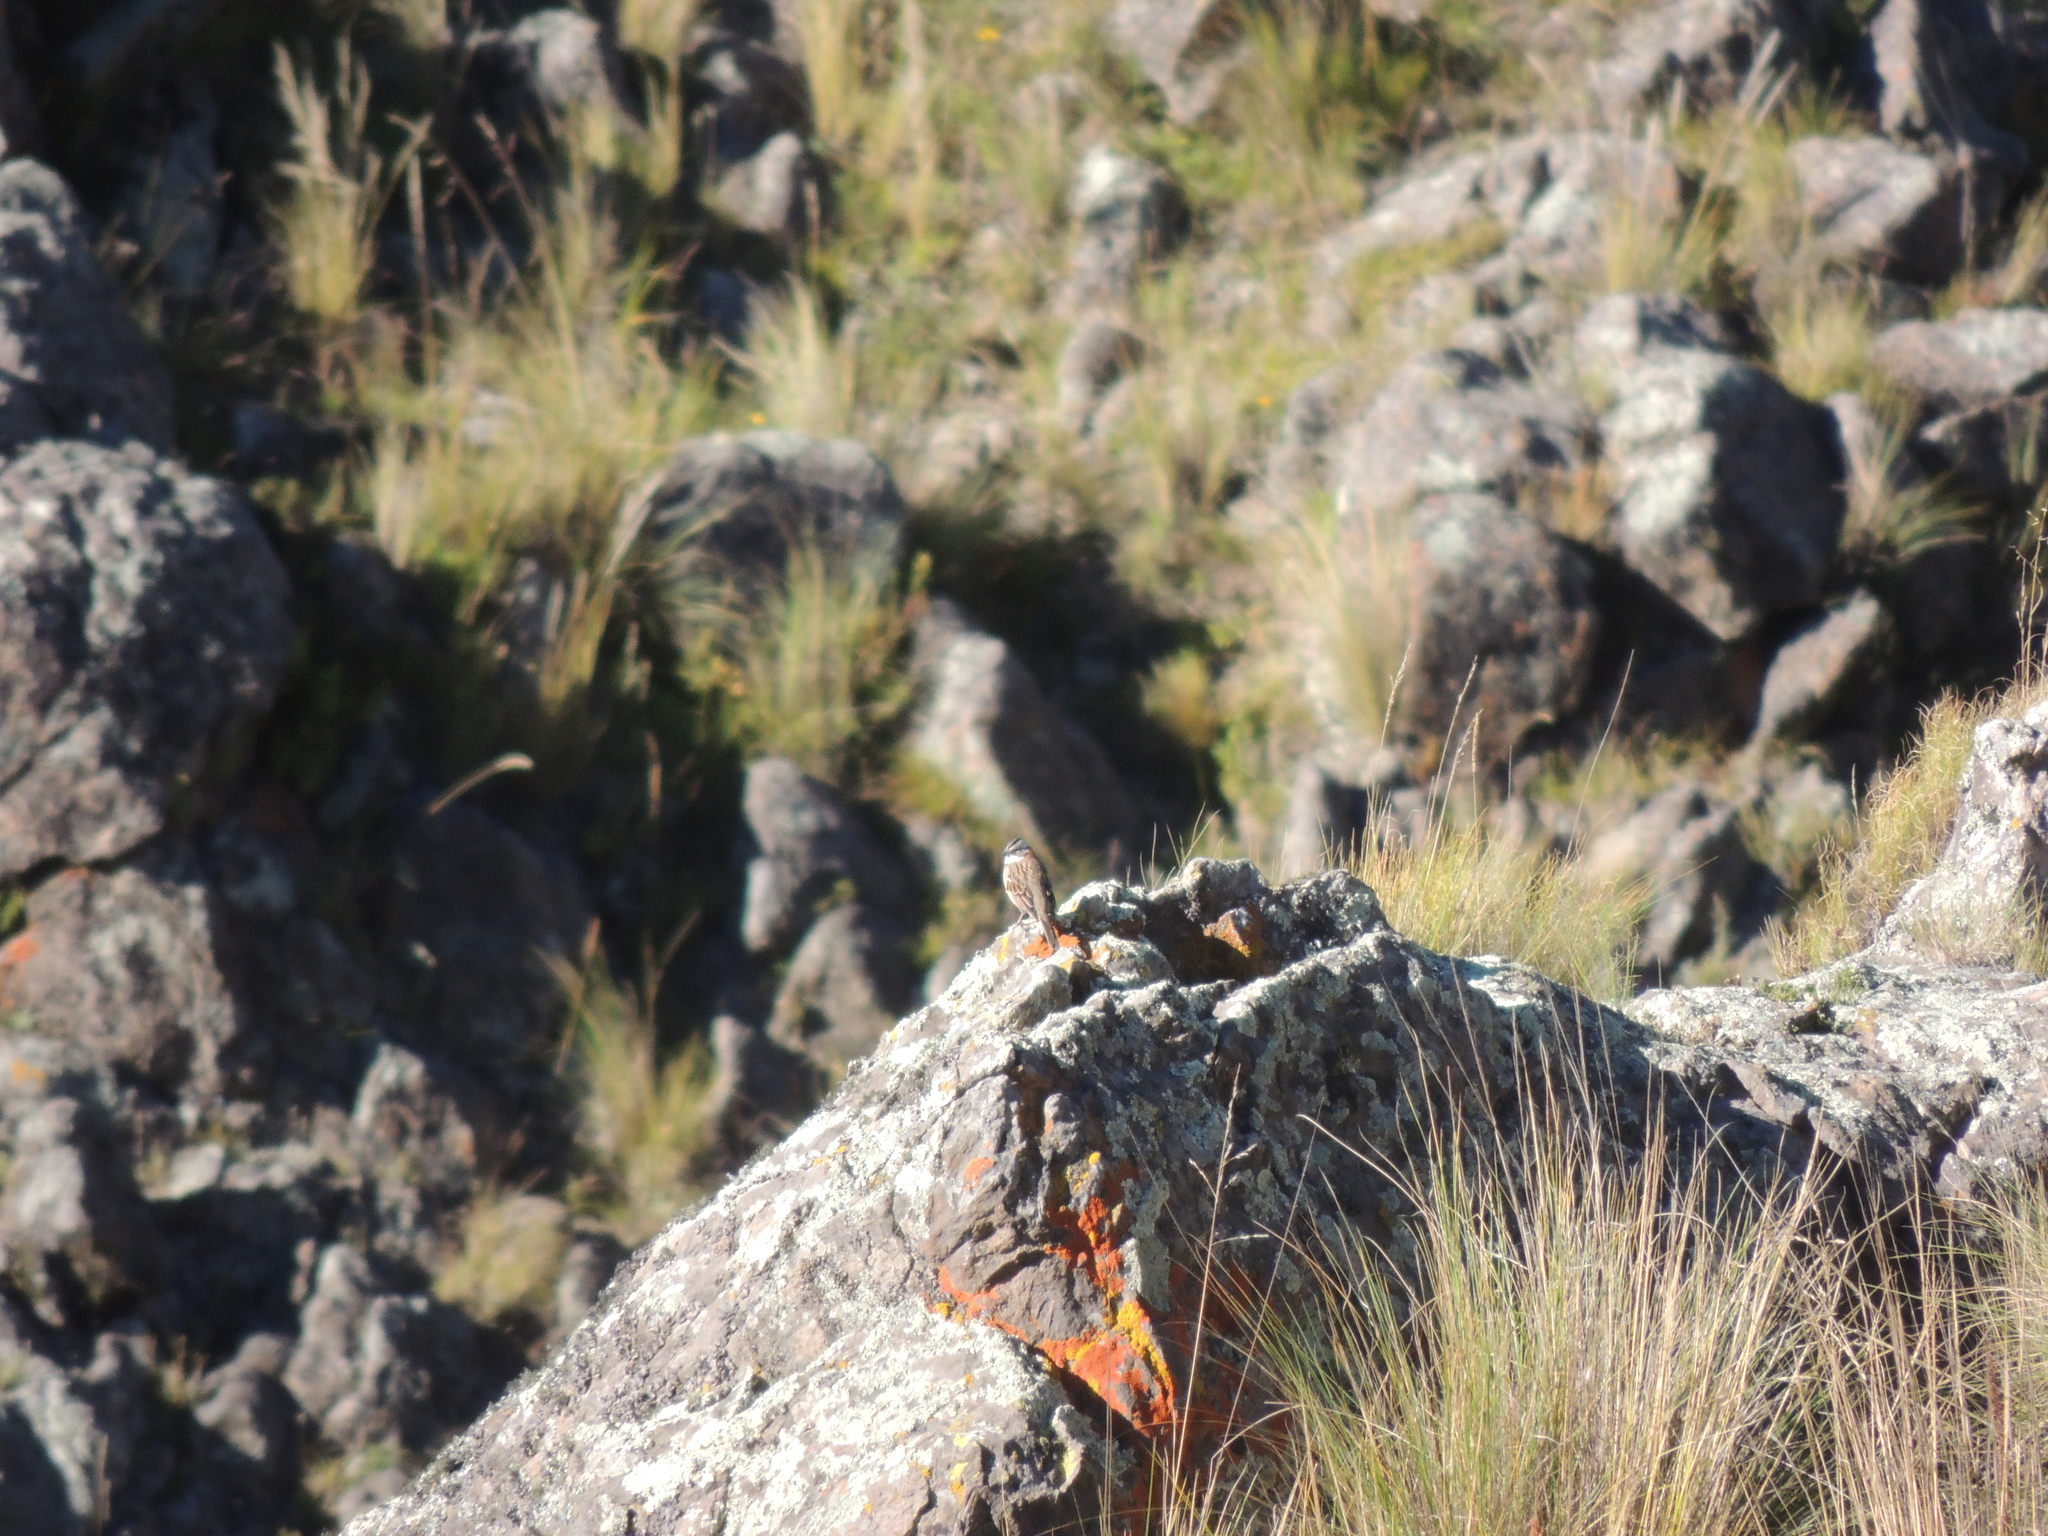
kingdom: Animalia
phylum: Chordata
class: Aves
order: Passeriformes
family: Passerellidae
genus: Zonotrichia
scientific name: Zonotrichia capensis
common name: Rufous-collared sparrow
